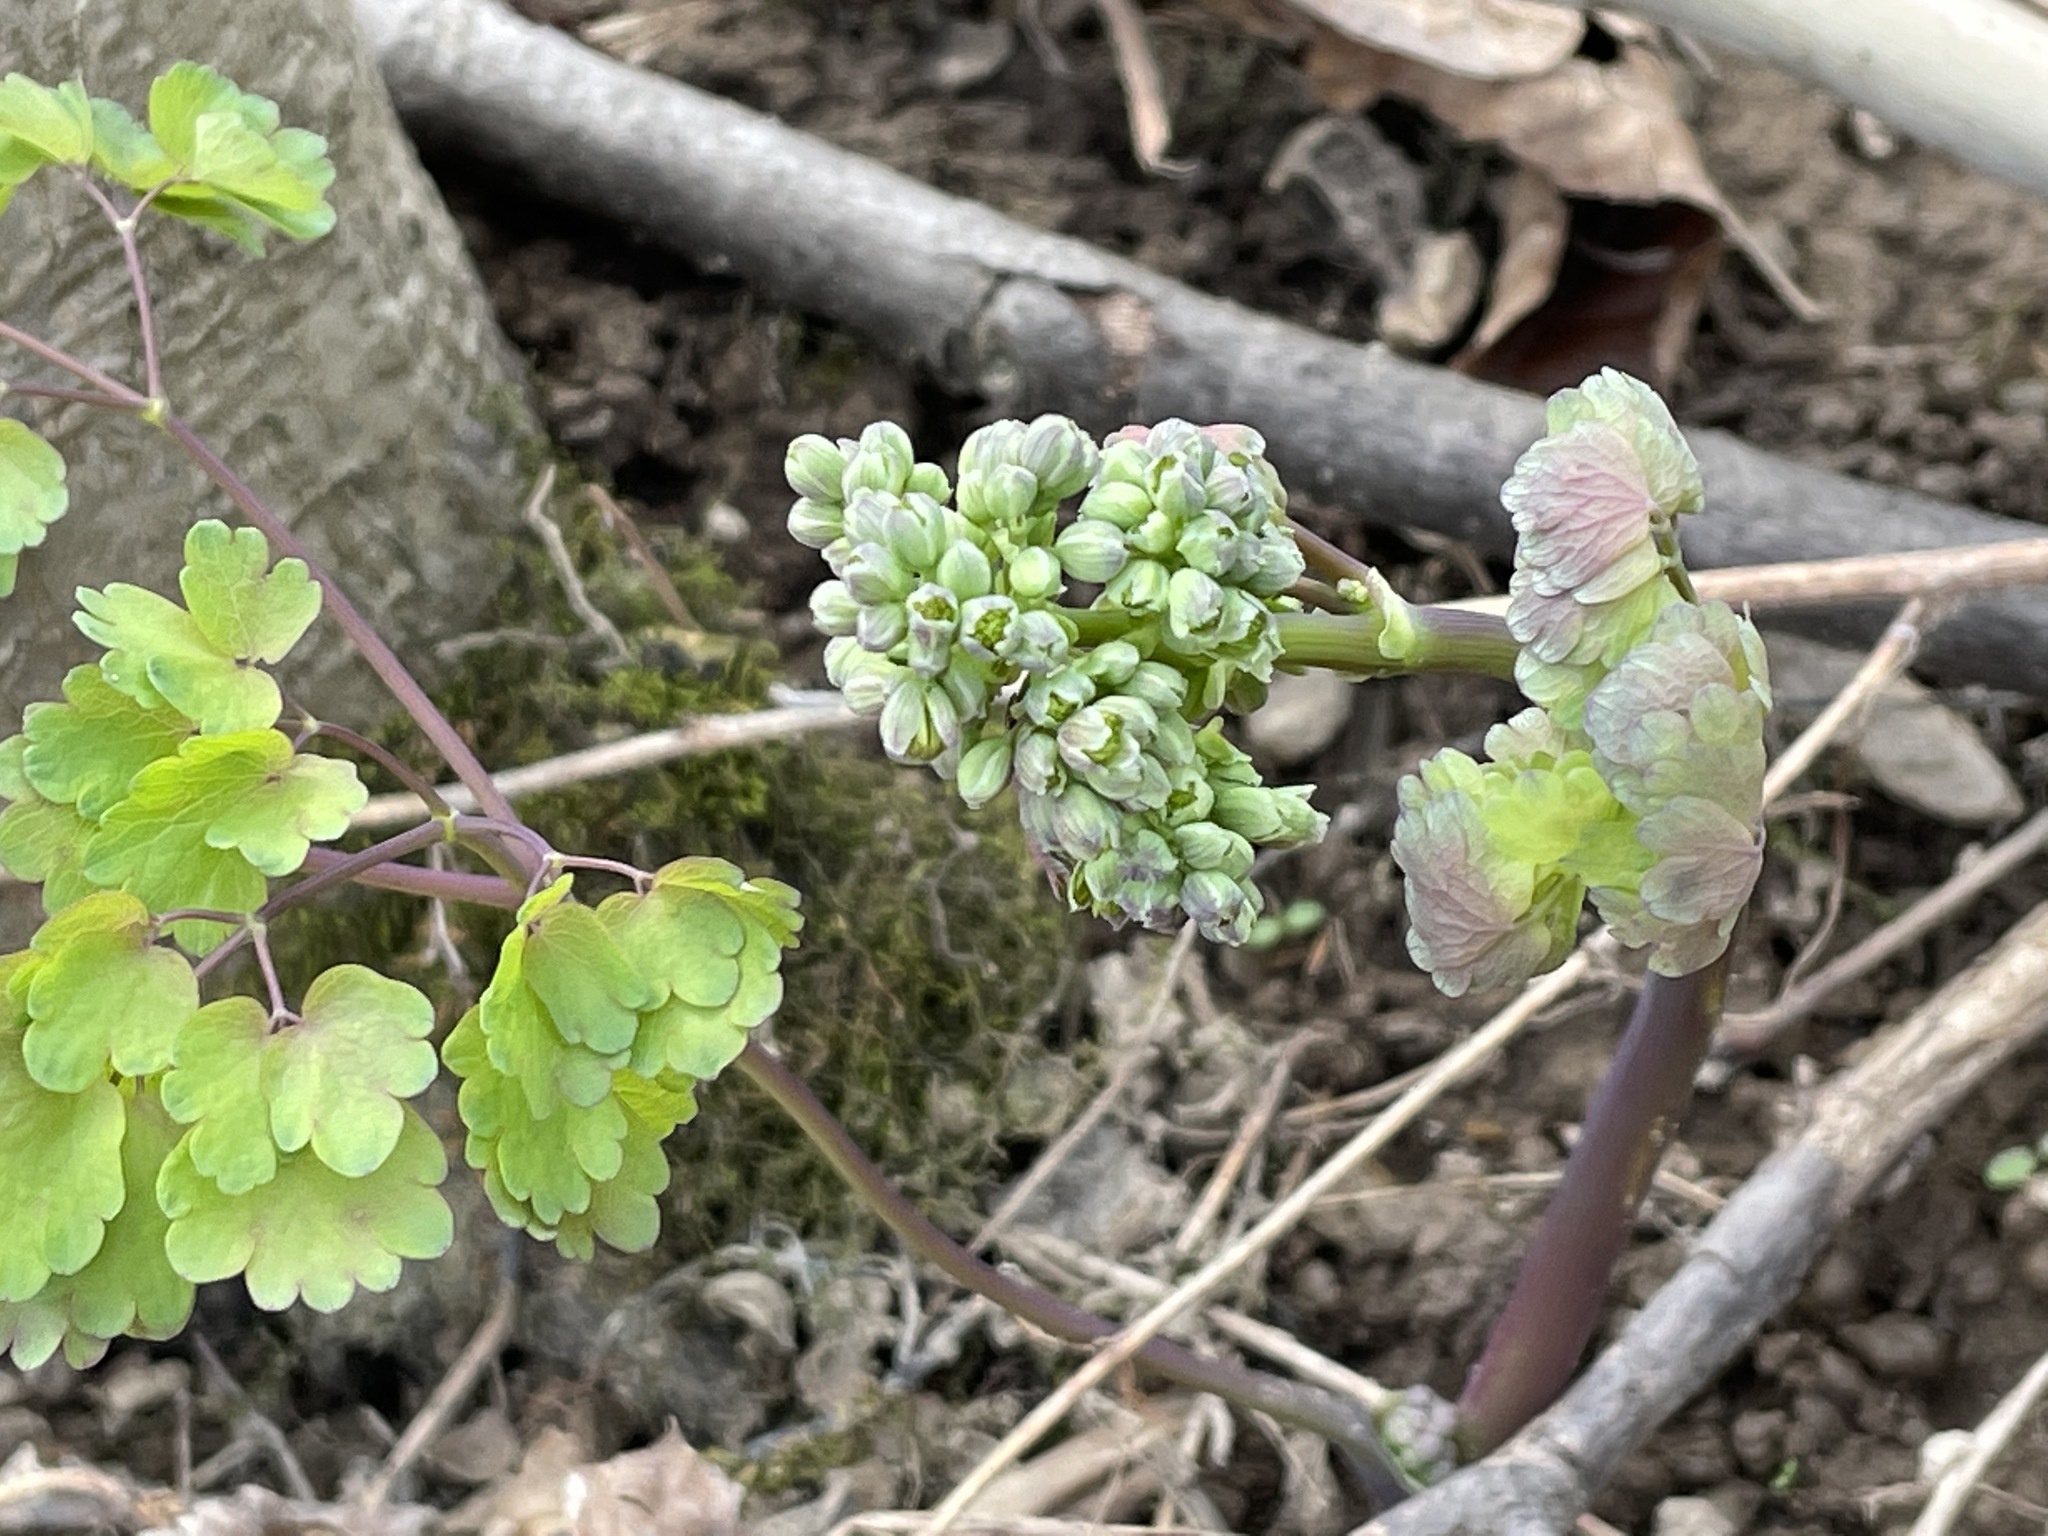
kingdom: Plantae
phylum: Tracheophyta
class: Magnoliopsida
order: Ranunculales
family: Ranunculaceae
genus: Thalictrum
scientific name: Thalictrum dioicum
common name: Early meadow-rue
